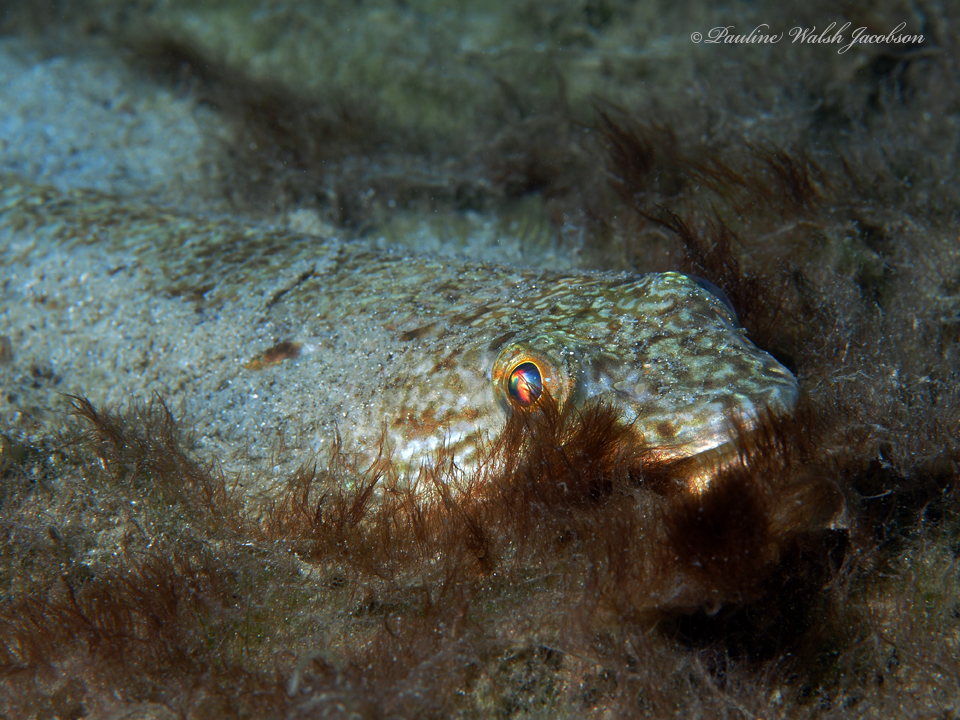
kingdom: Animalia
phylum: Chordata
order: Aulopiformes
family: Synodontidae
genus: Synodus
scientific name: Synodus foetens
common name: Inshore lizardfish
